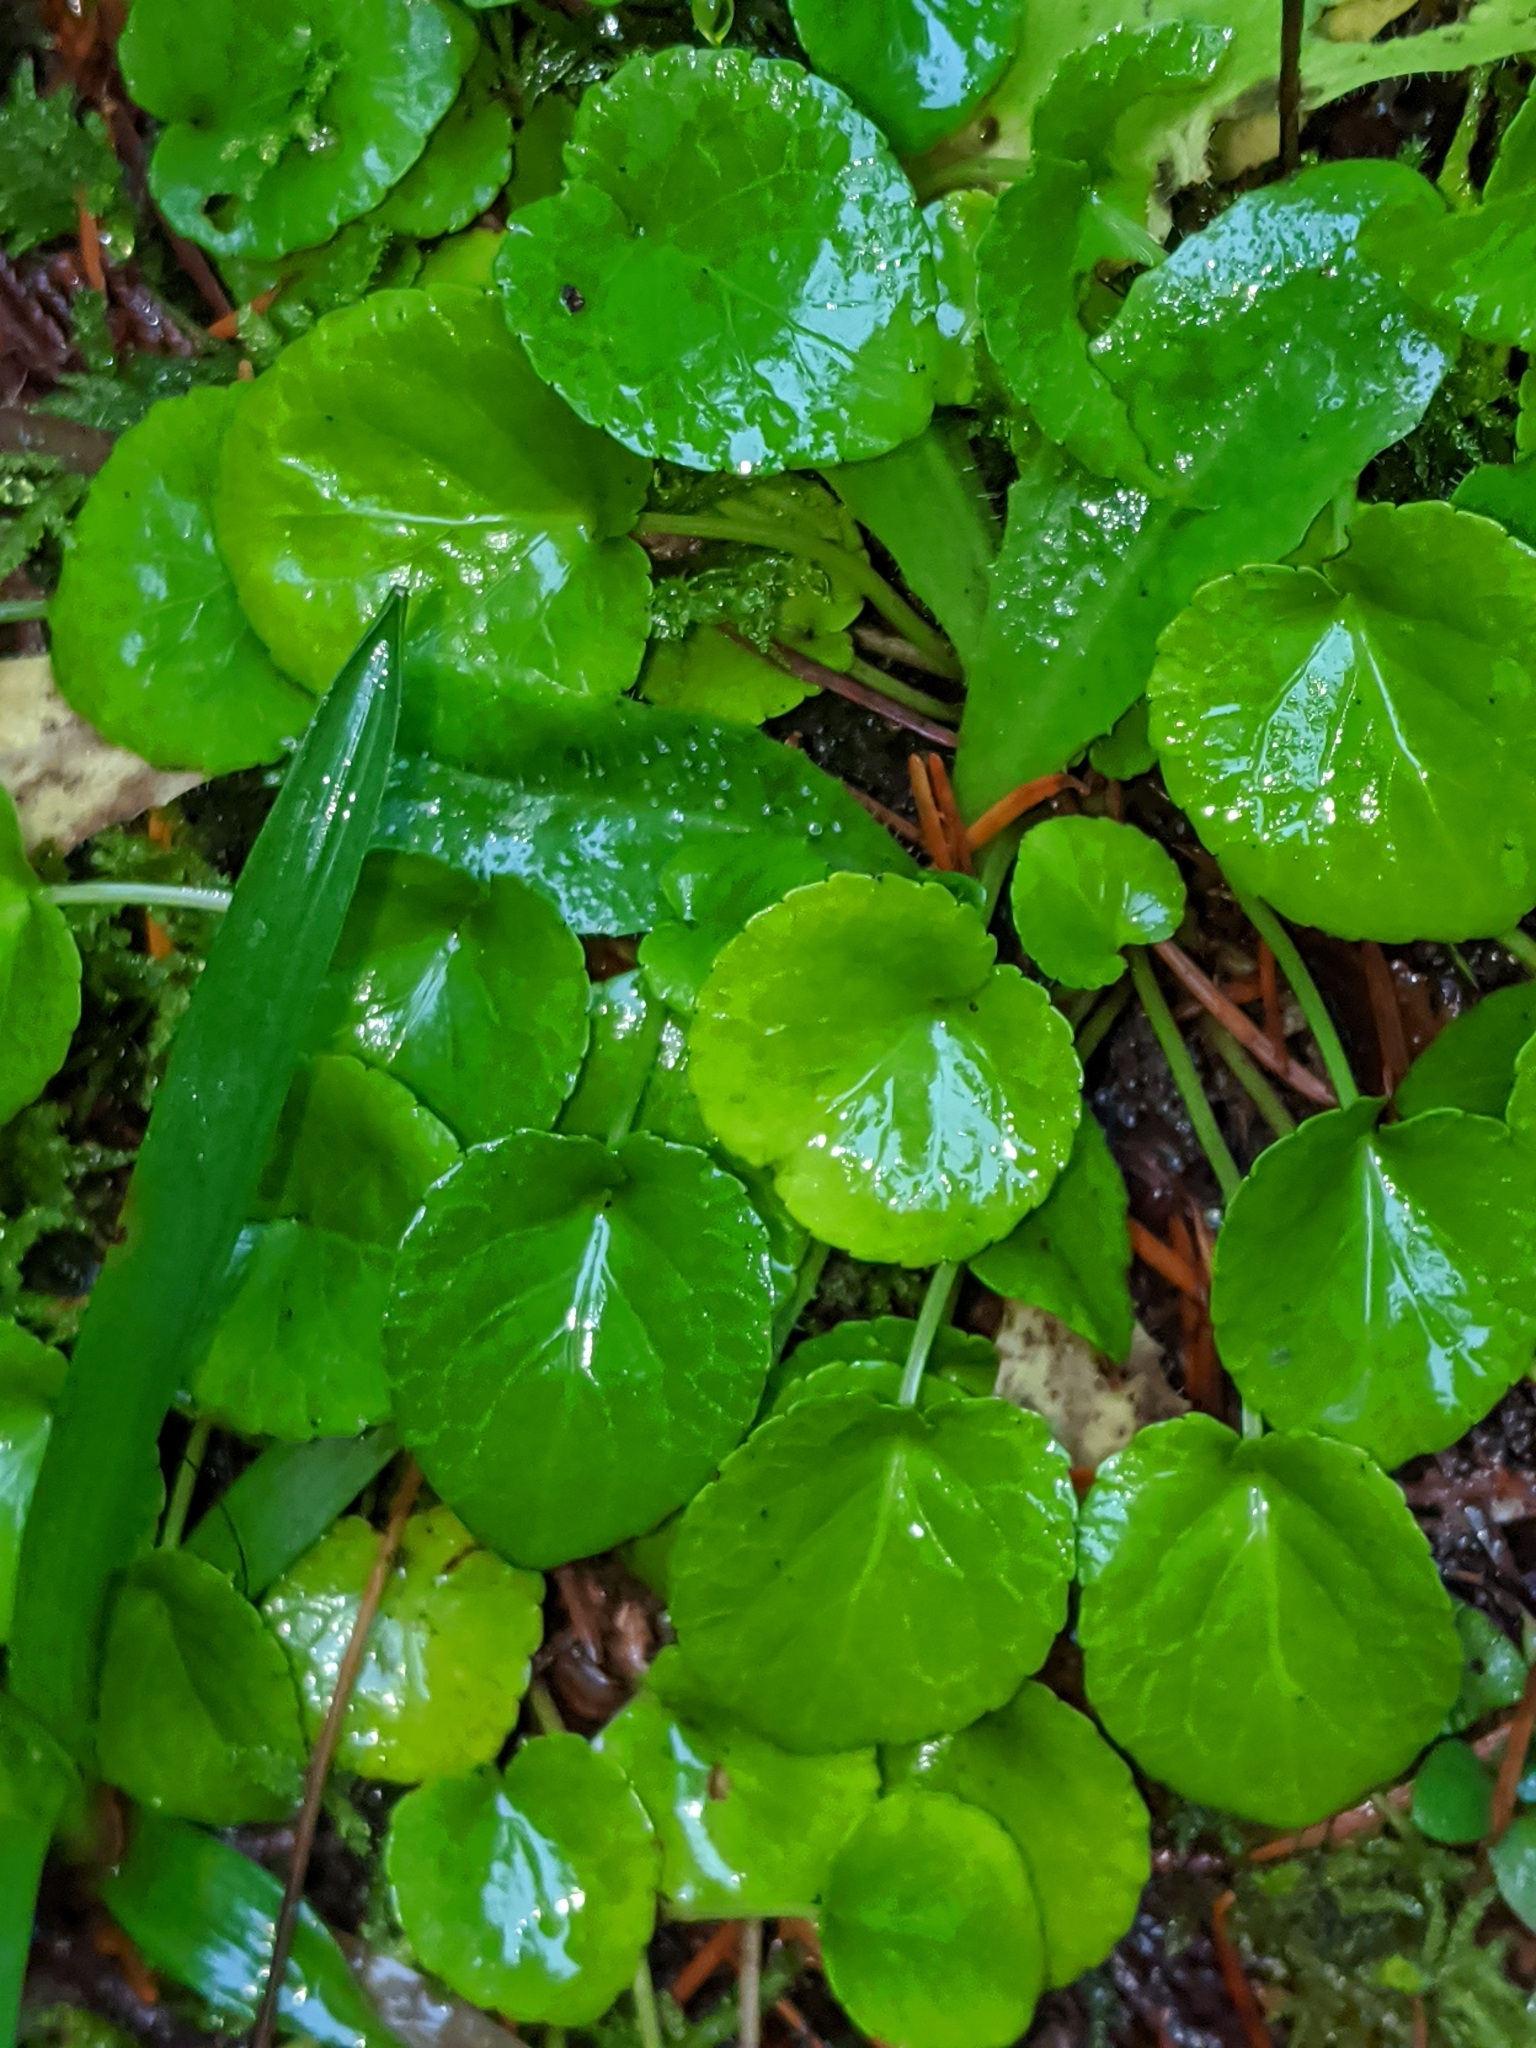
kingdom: Plantae
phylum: Tracheophyta
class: Magnoliopsida
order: Malpighiales
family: Violaceae
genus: Viola
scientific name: Viola sempervirens
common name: Evergreen violet
